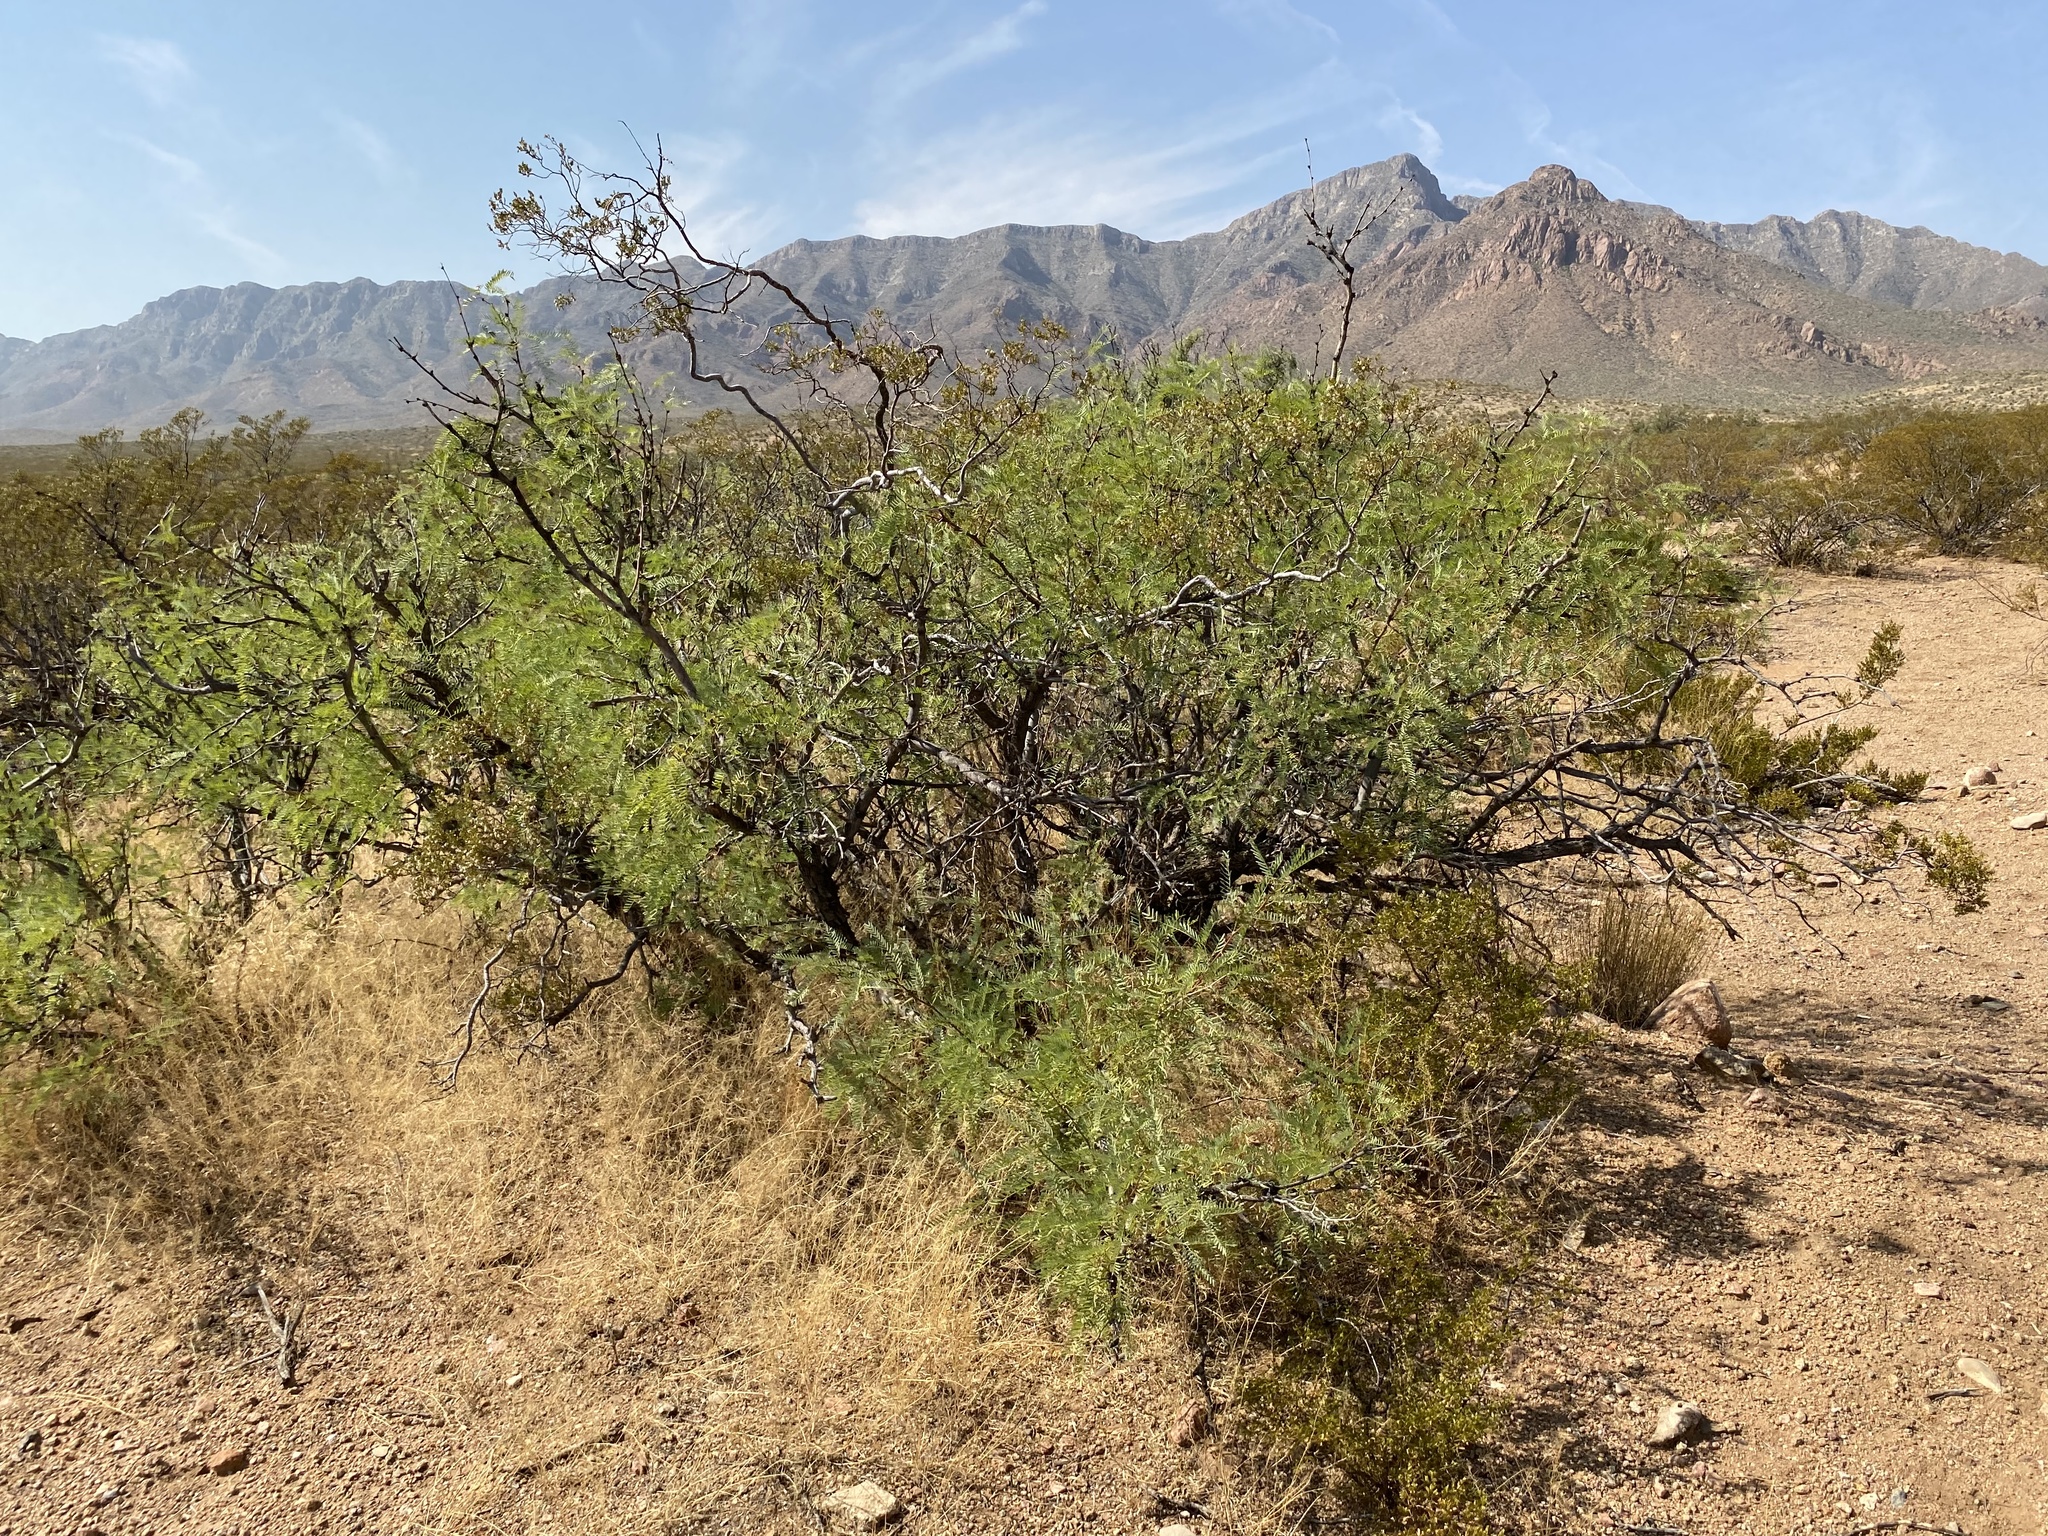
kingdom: Plantae
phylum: Tracheophyta
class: Magnoliopsida
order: Fabales
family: Fabaceae
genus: Prosopis
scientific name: Prosopis glandulosa
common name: Honey mesquite
